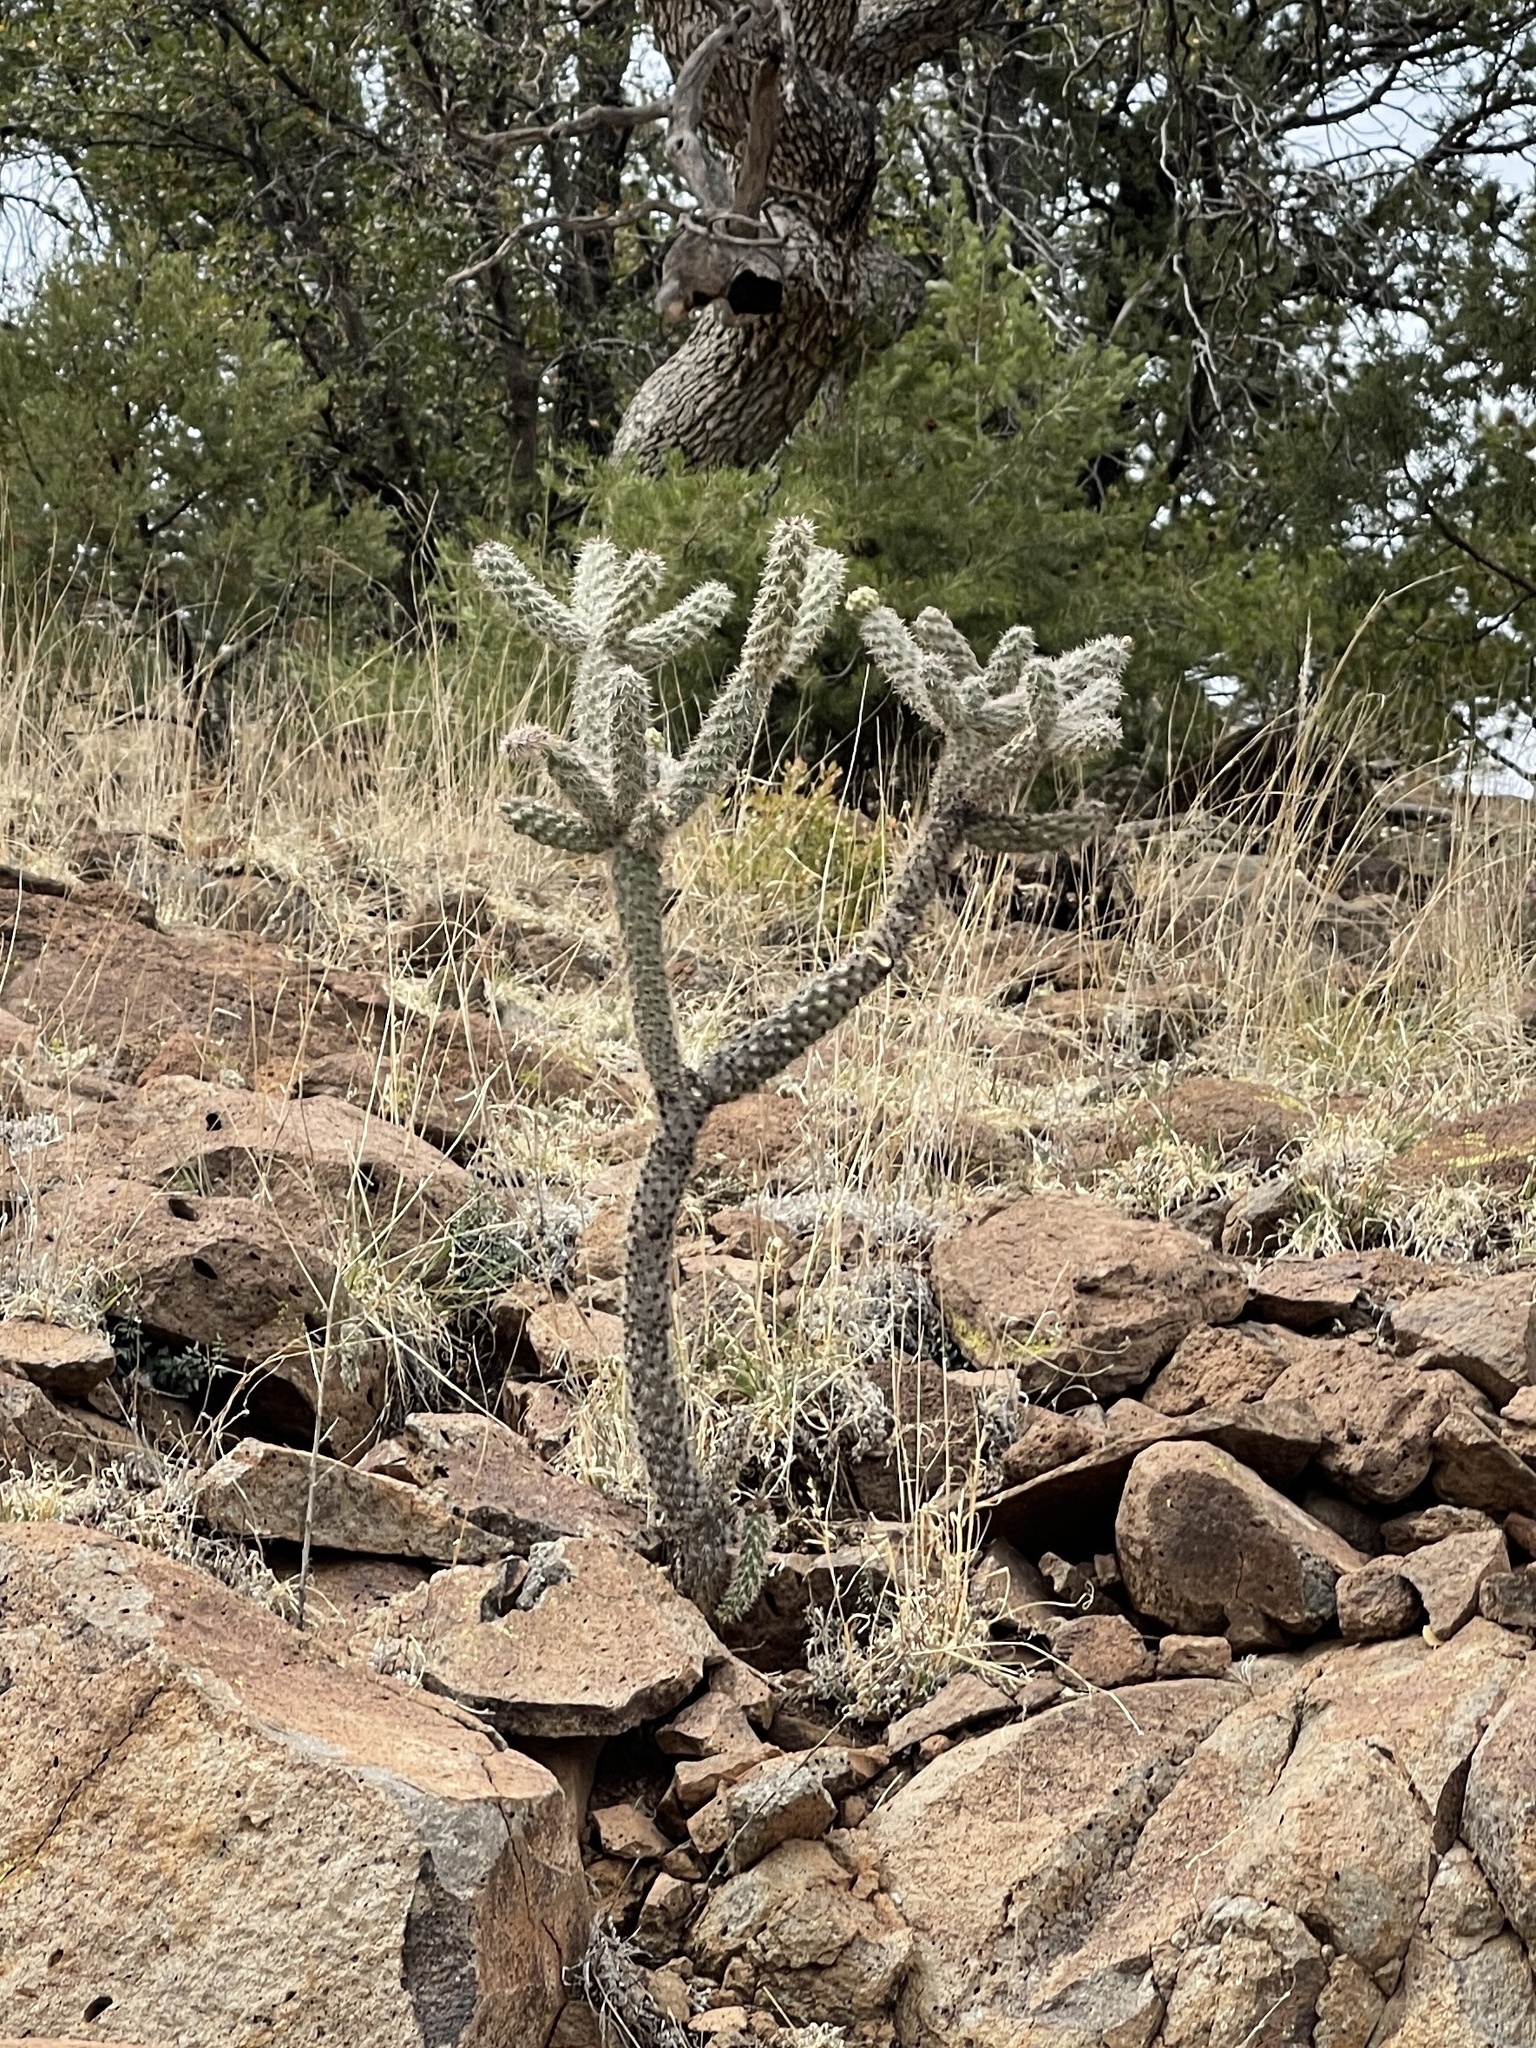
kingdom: Plantae
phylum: Tracheophyta
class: Magnoliopsida
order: Caryophyllales
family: Cactaceae
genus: Cylindropuntia
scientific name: Cylindropuntia imbricata
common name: Candelabrum cactus
